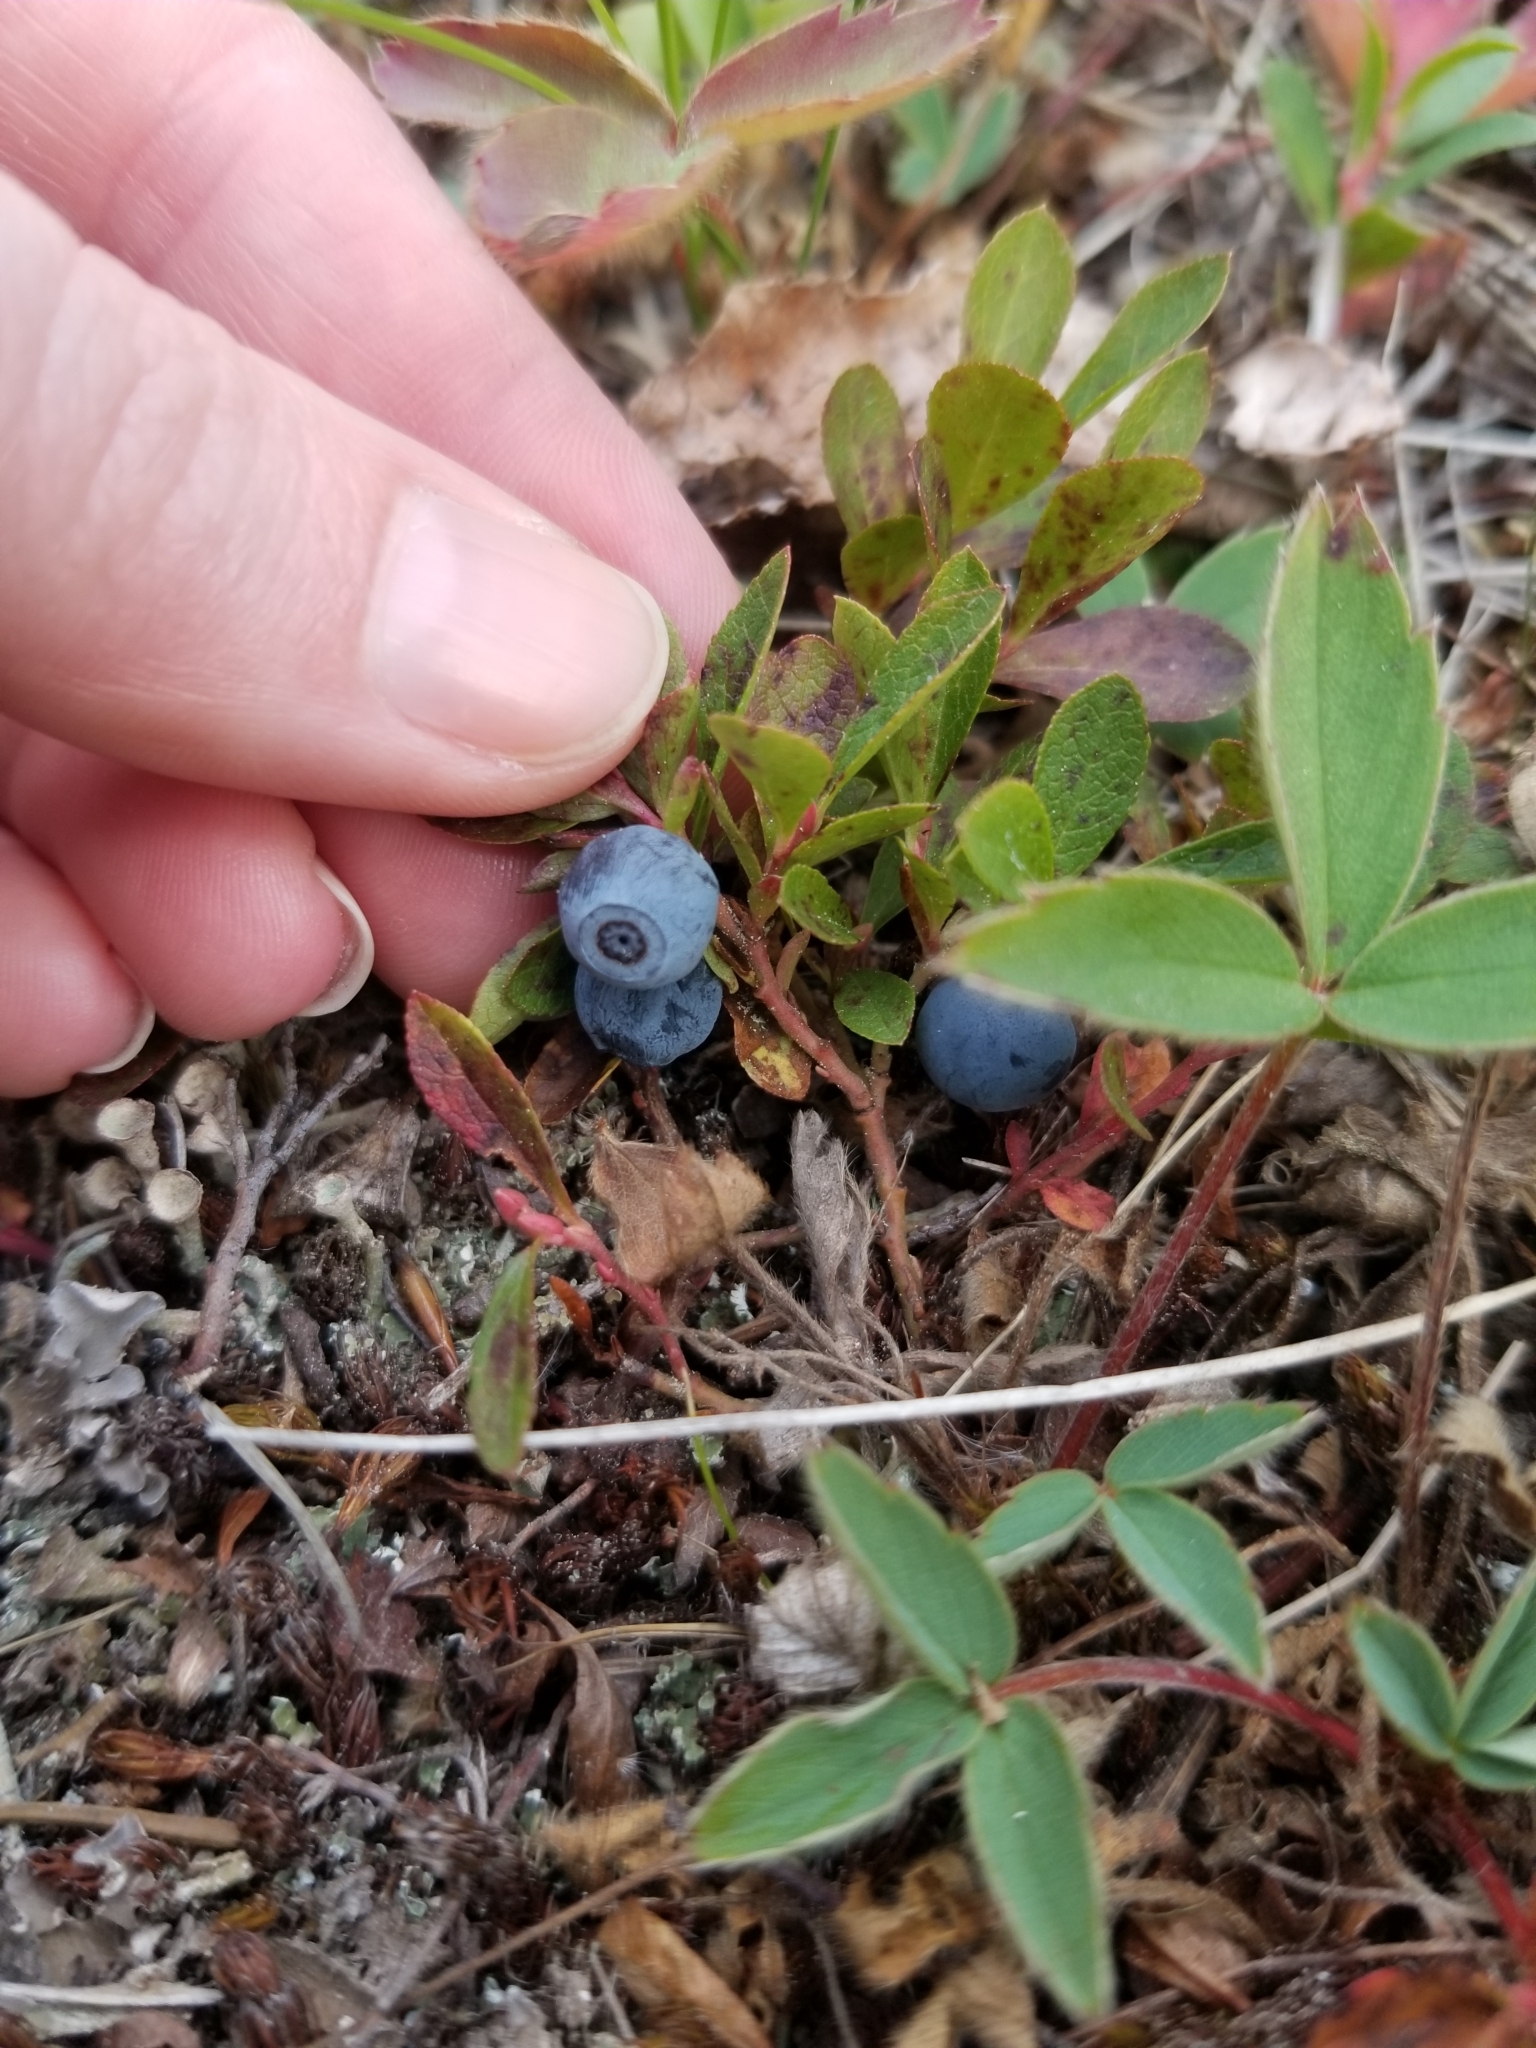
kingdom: Plantae
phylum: Tracheophyta
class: Magnoliopsida
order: Ericales
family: Ericaceae
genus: Vaccinium
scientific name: Vaccinium cespitosum
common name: Dwarf bilberry
